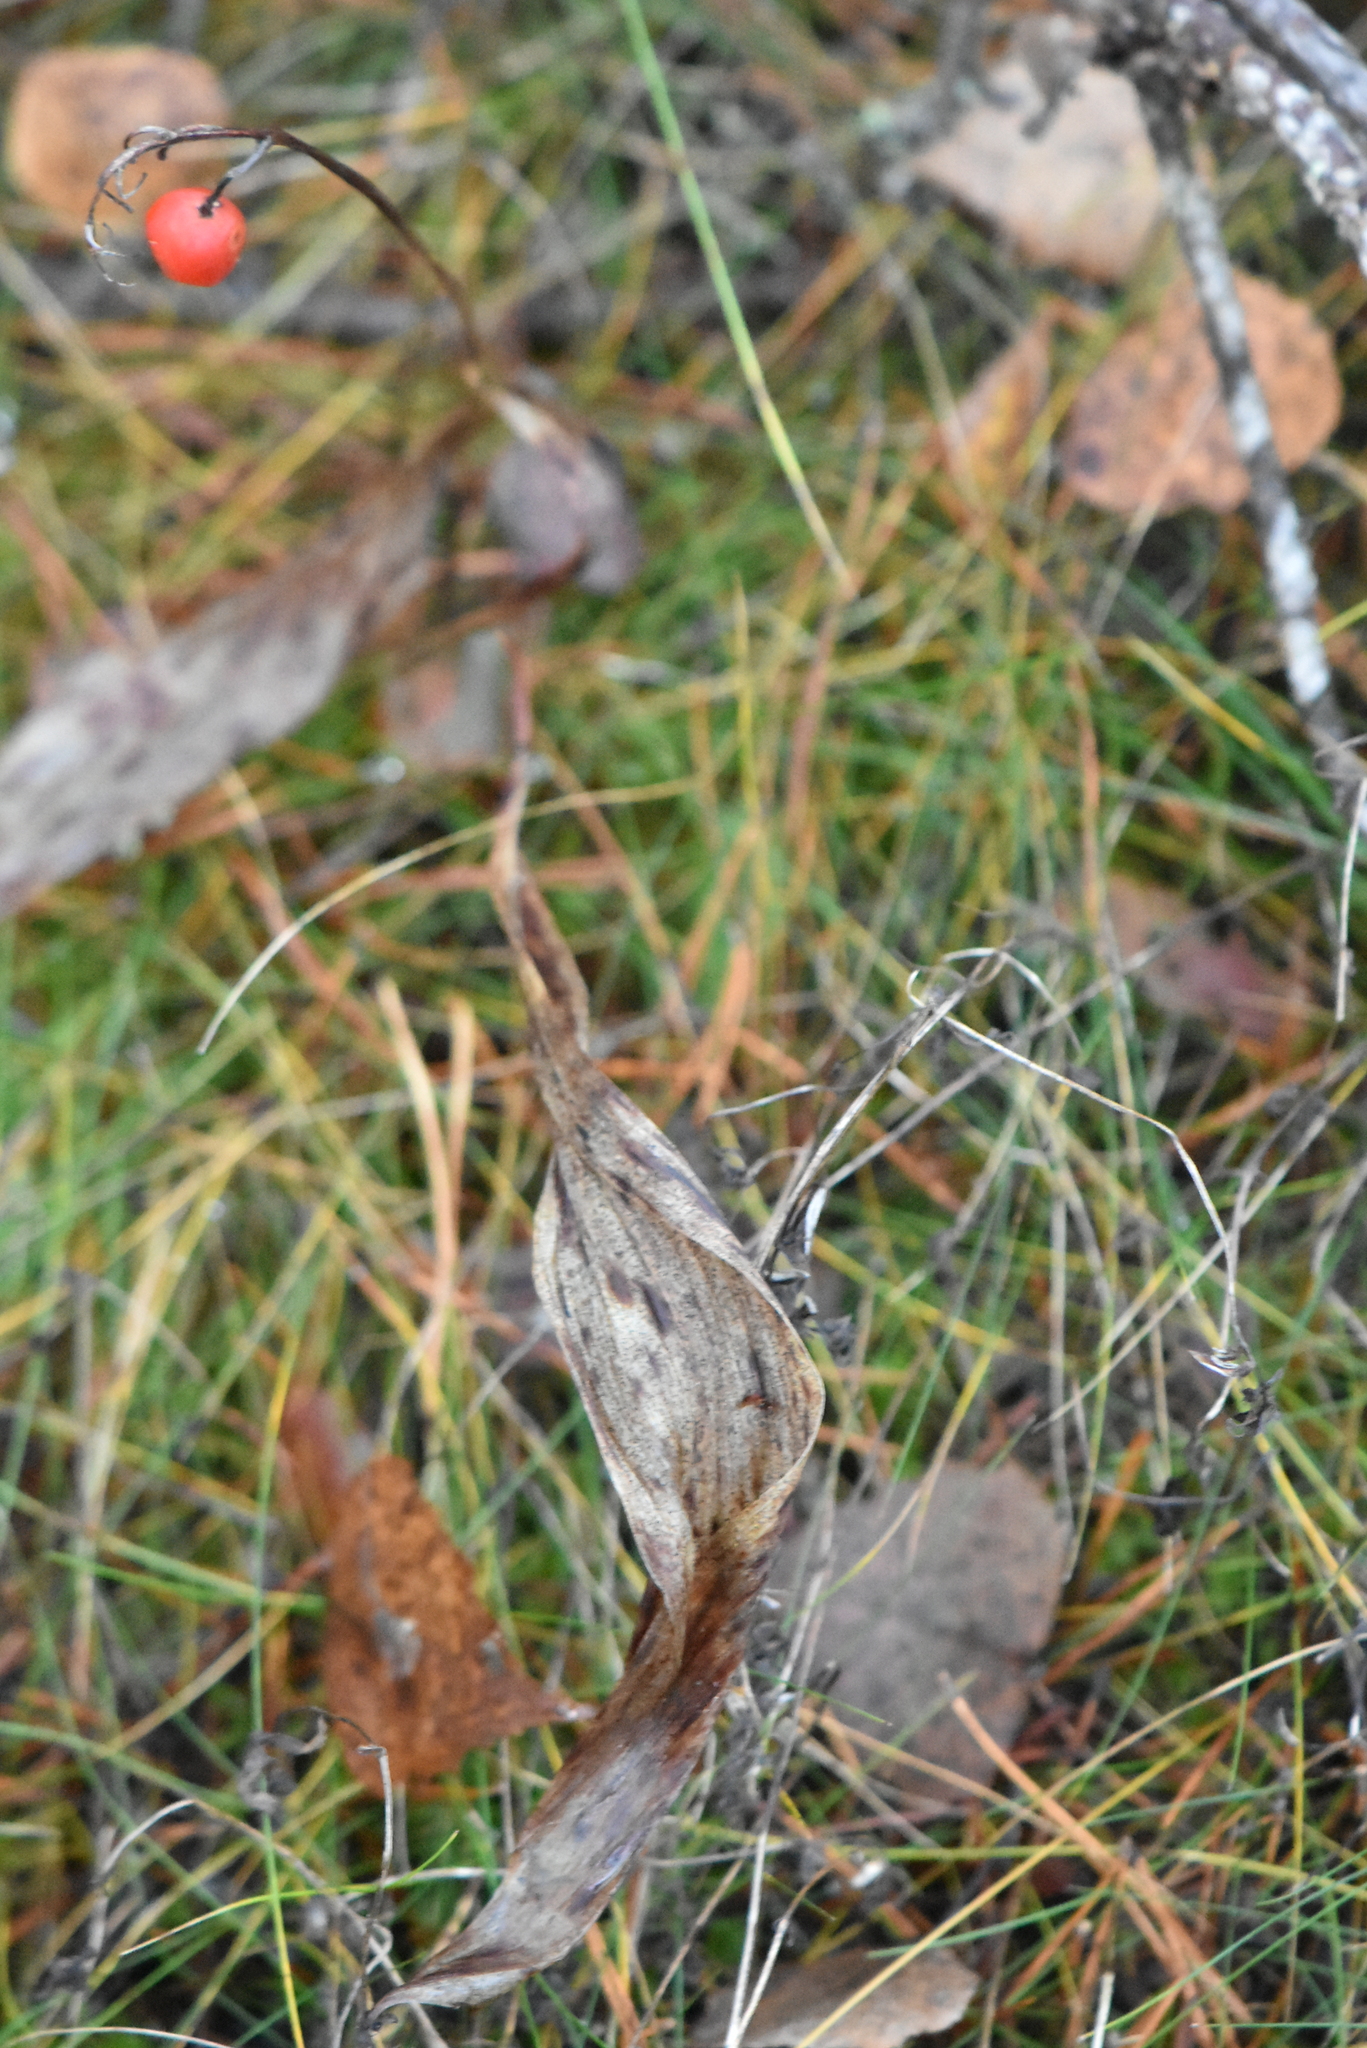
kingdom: Plantae
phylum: Tracheophyta
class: Liliopsida
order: Asparagales
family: Asparagaceae
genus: Convallaria
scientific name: Convallaria majalis
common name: Lily-of-the-valley
